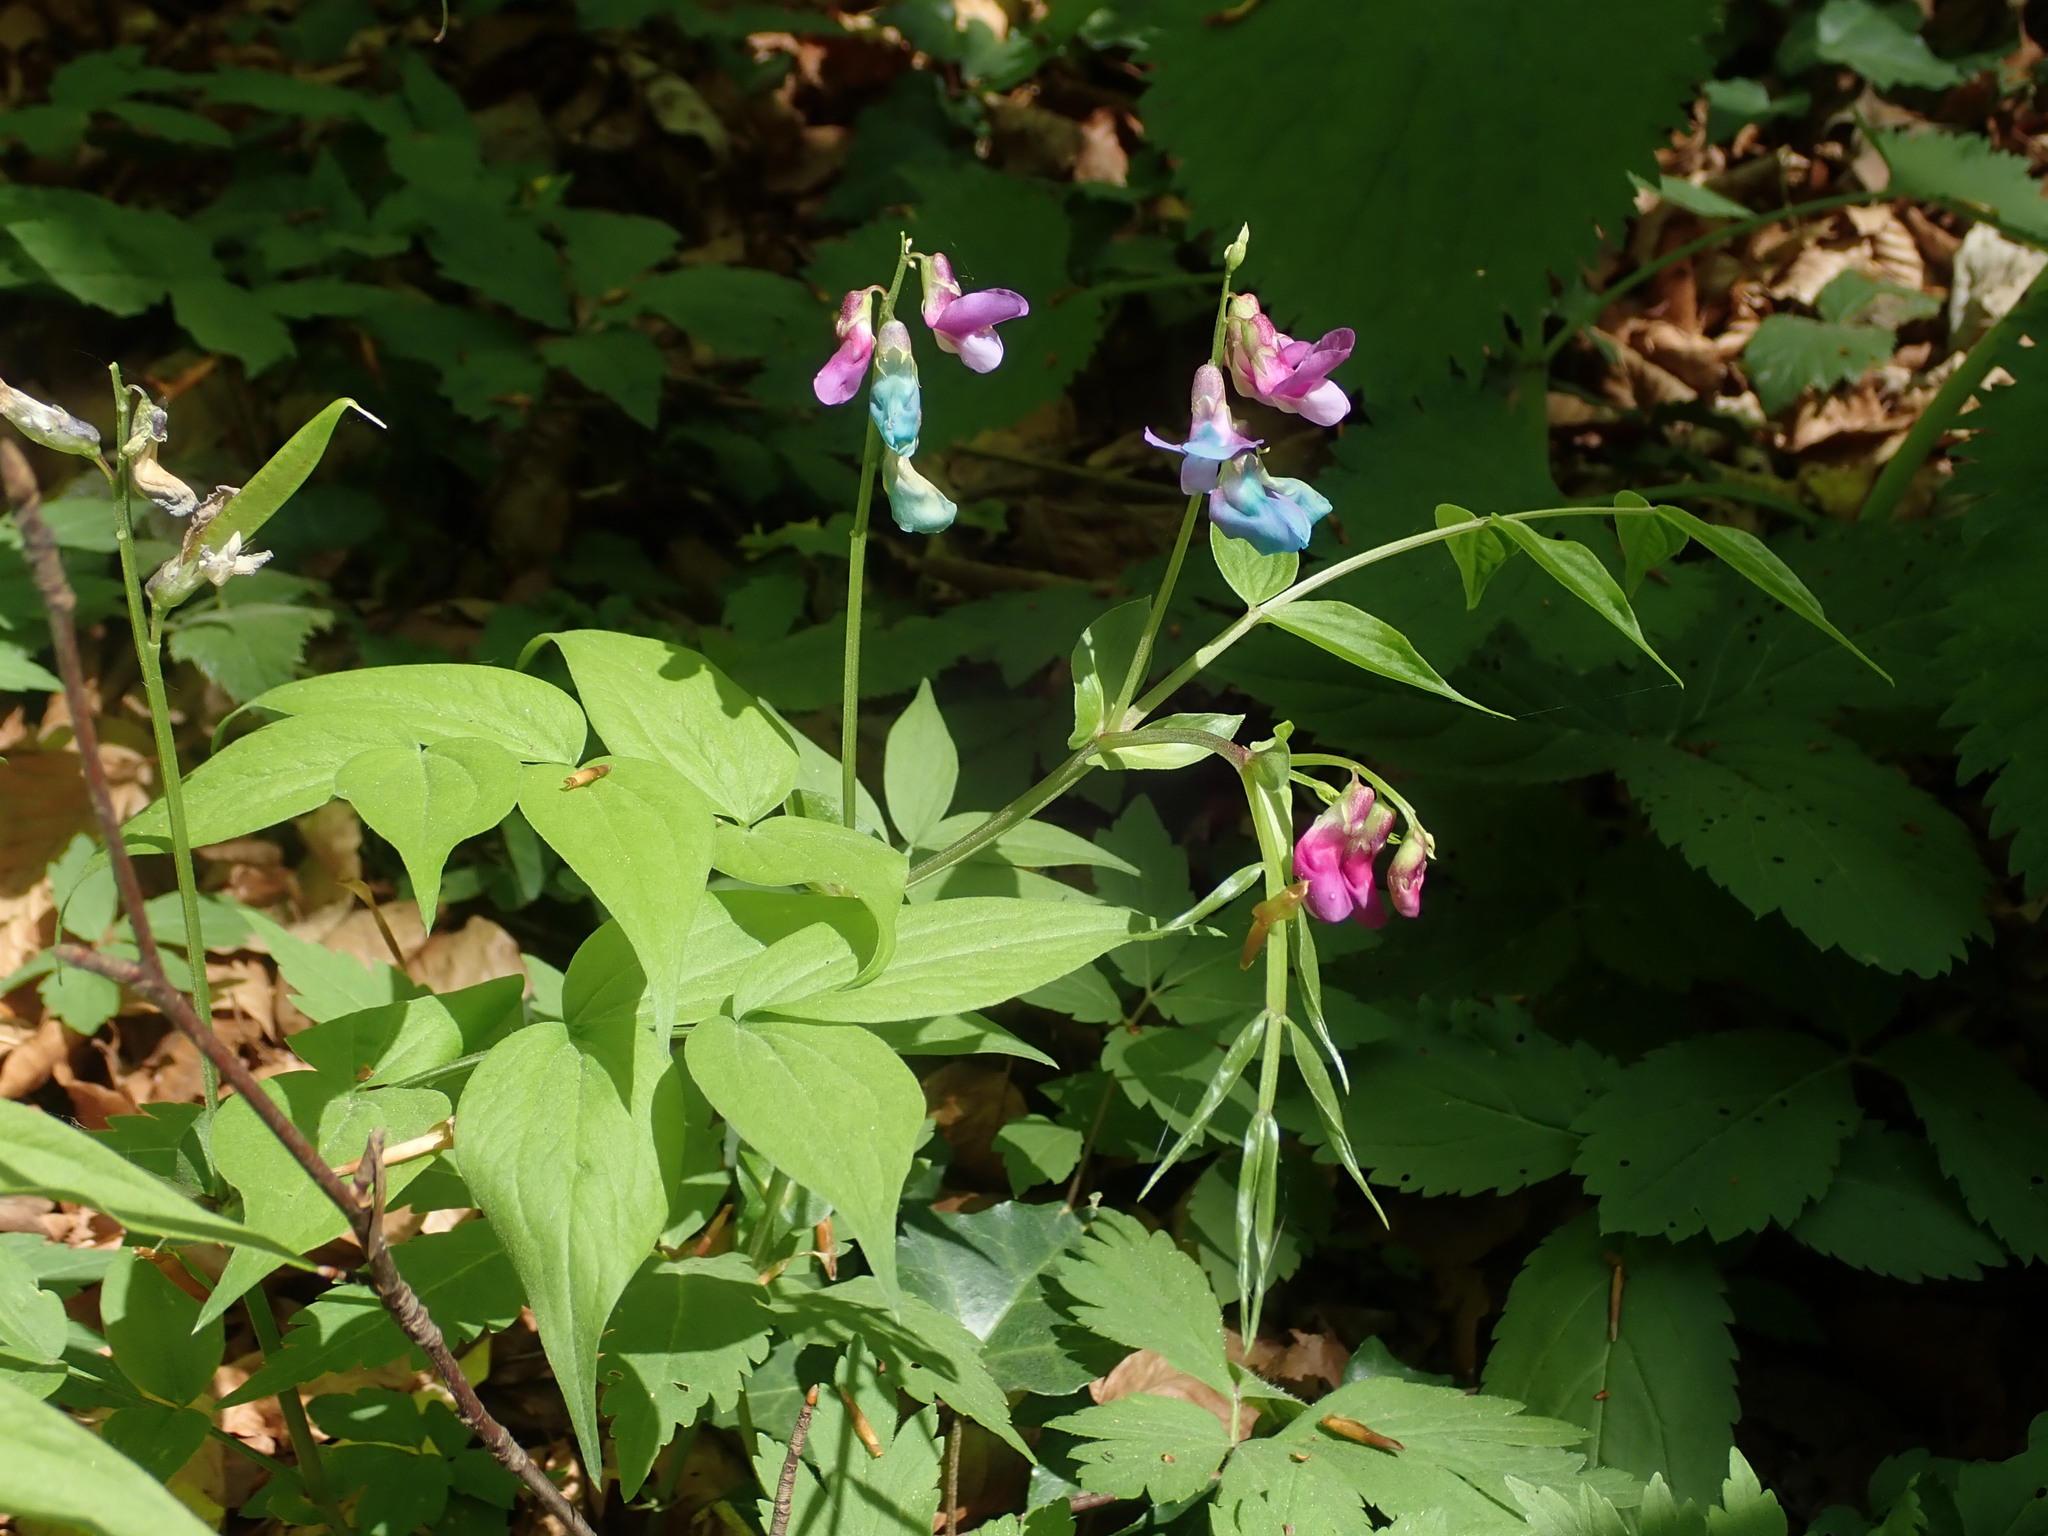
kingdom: Plantae
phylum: Tracheophyta
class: Magnoliopsida
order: Fabales
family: Fabaceae
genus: Lathyrus
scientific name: Lathyrus vernus
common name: Spring pea
